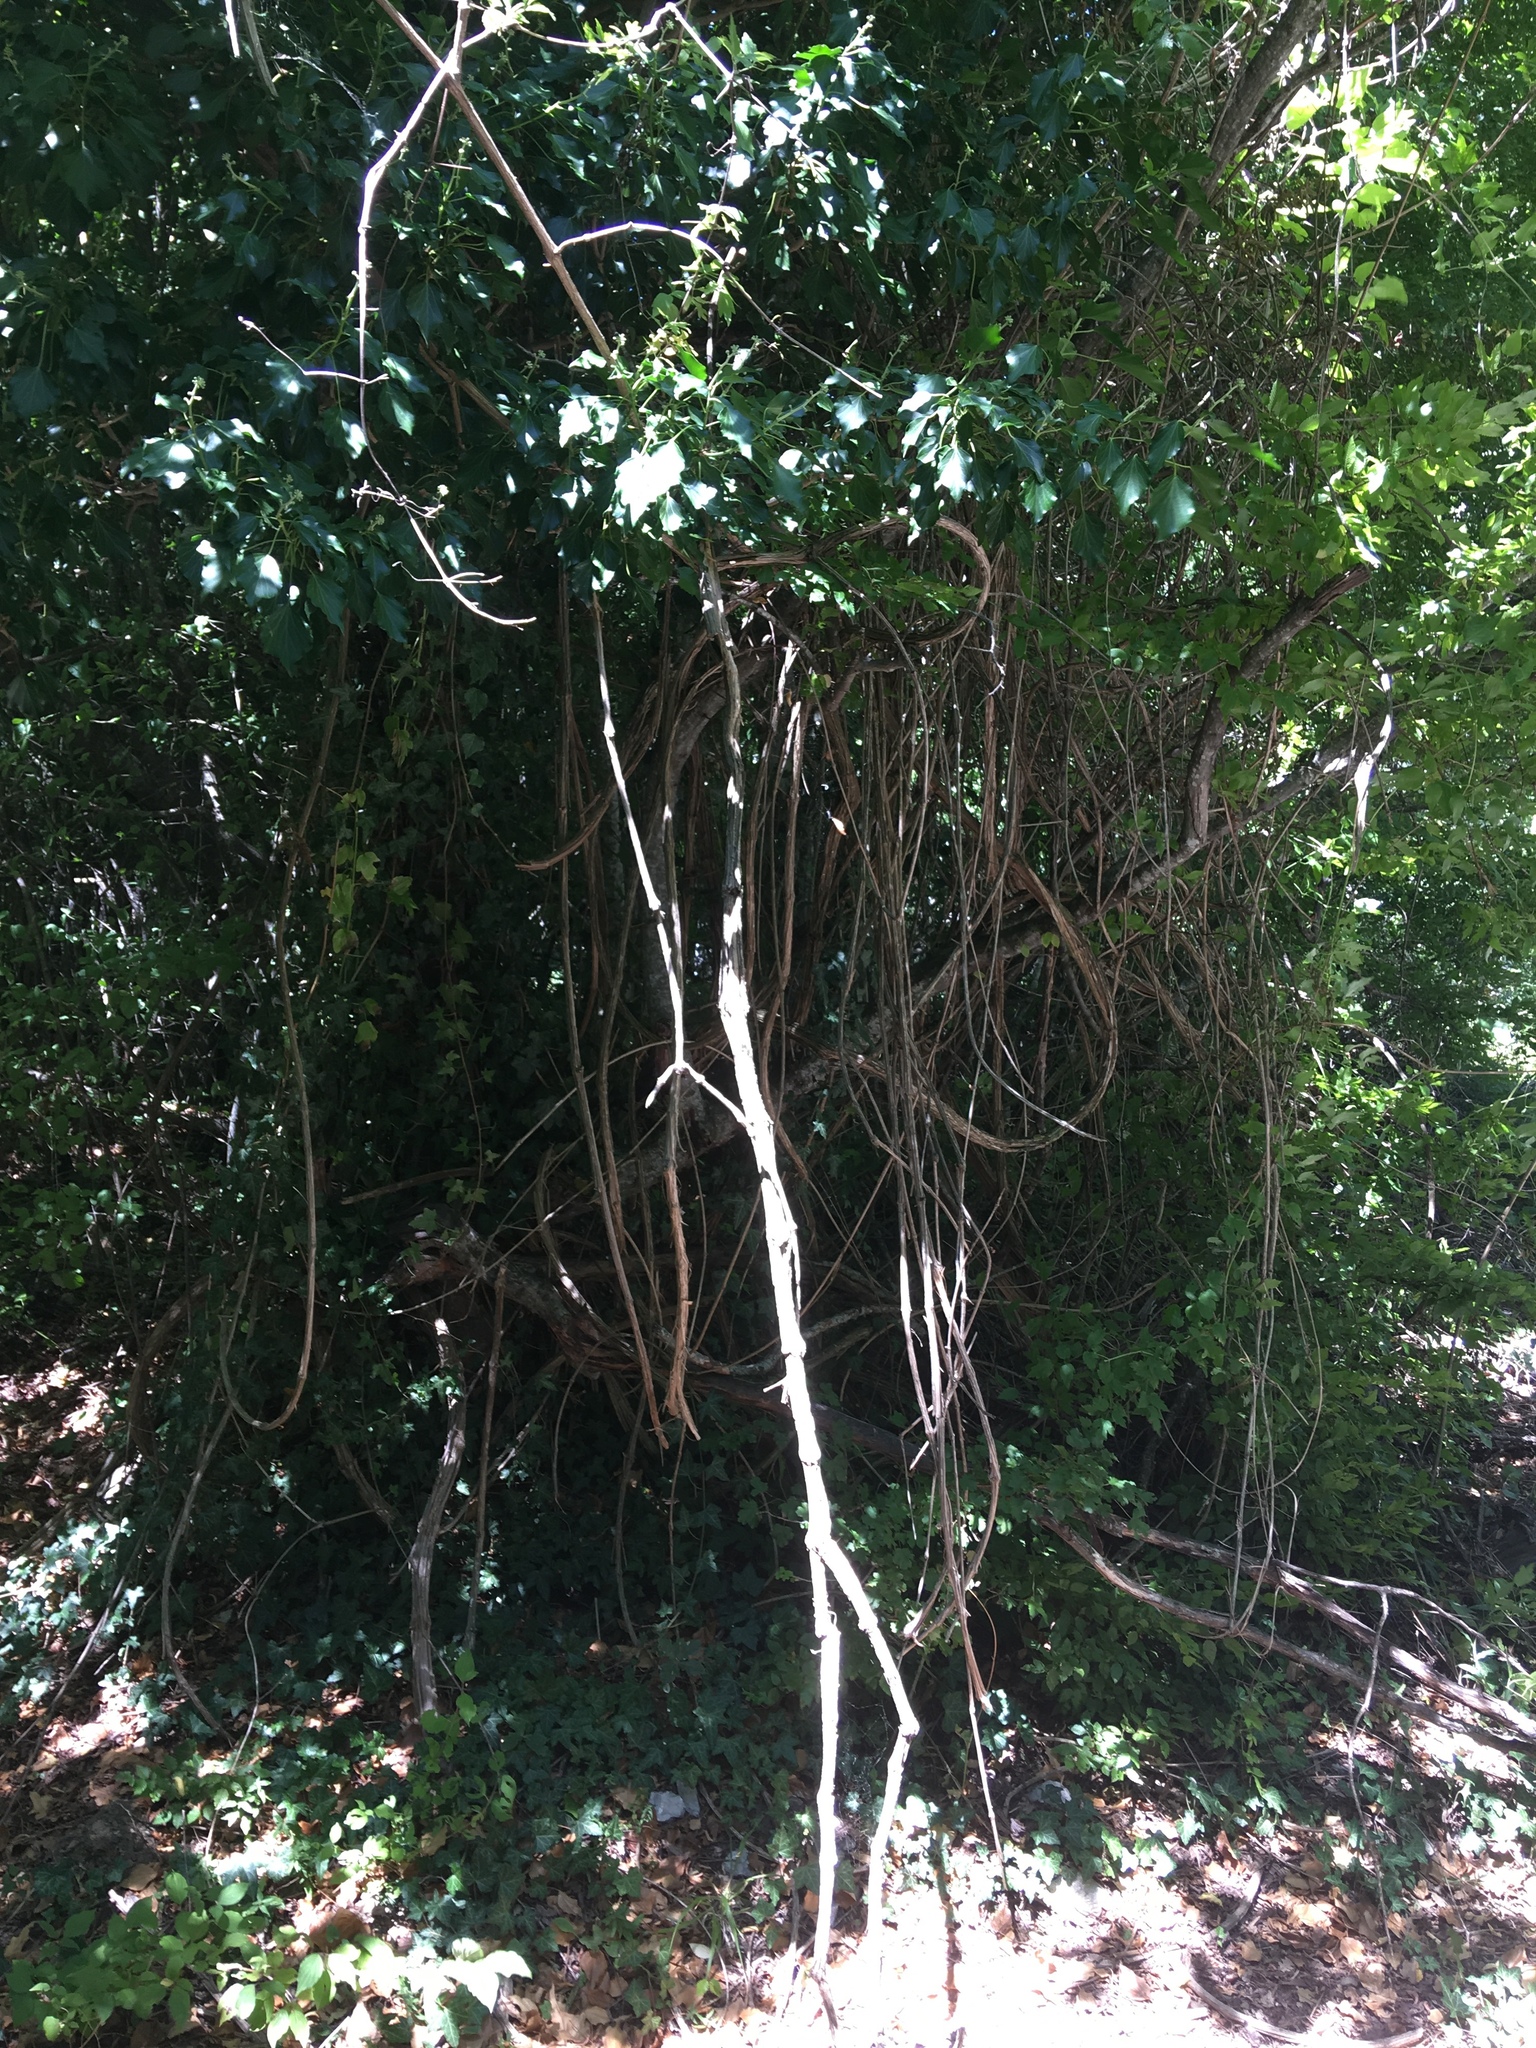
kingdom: Plantae
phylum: Tracheophyta
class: Magnoliopsida
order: Apiales
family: Araliaceae
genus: Hedera
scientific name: Hedera helix
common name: Ivy
